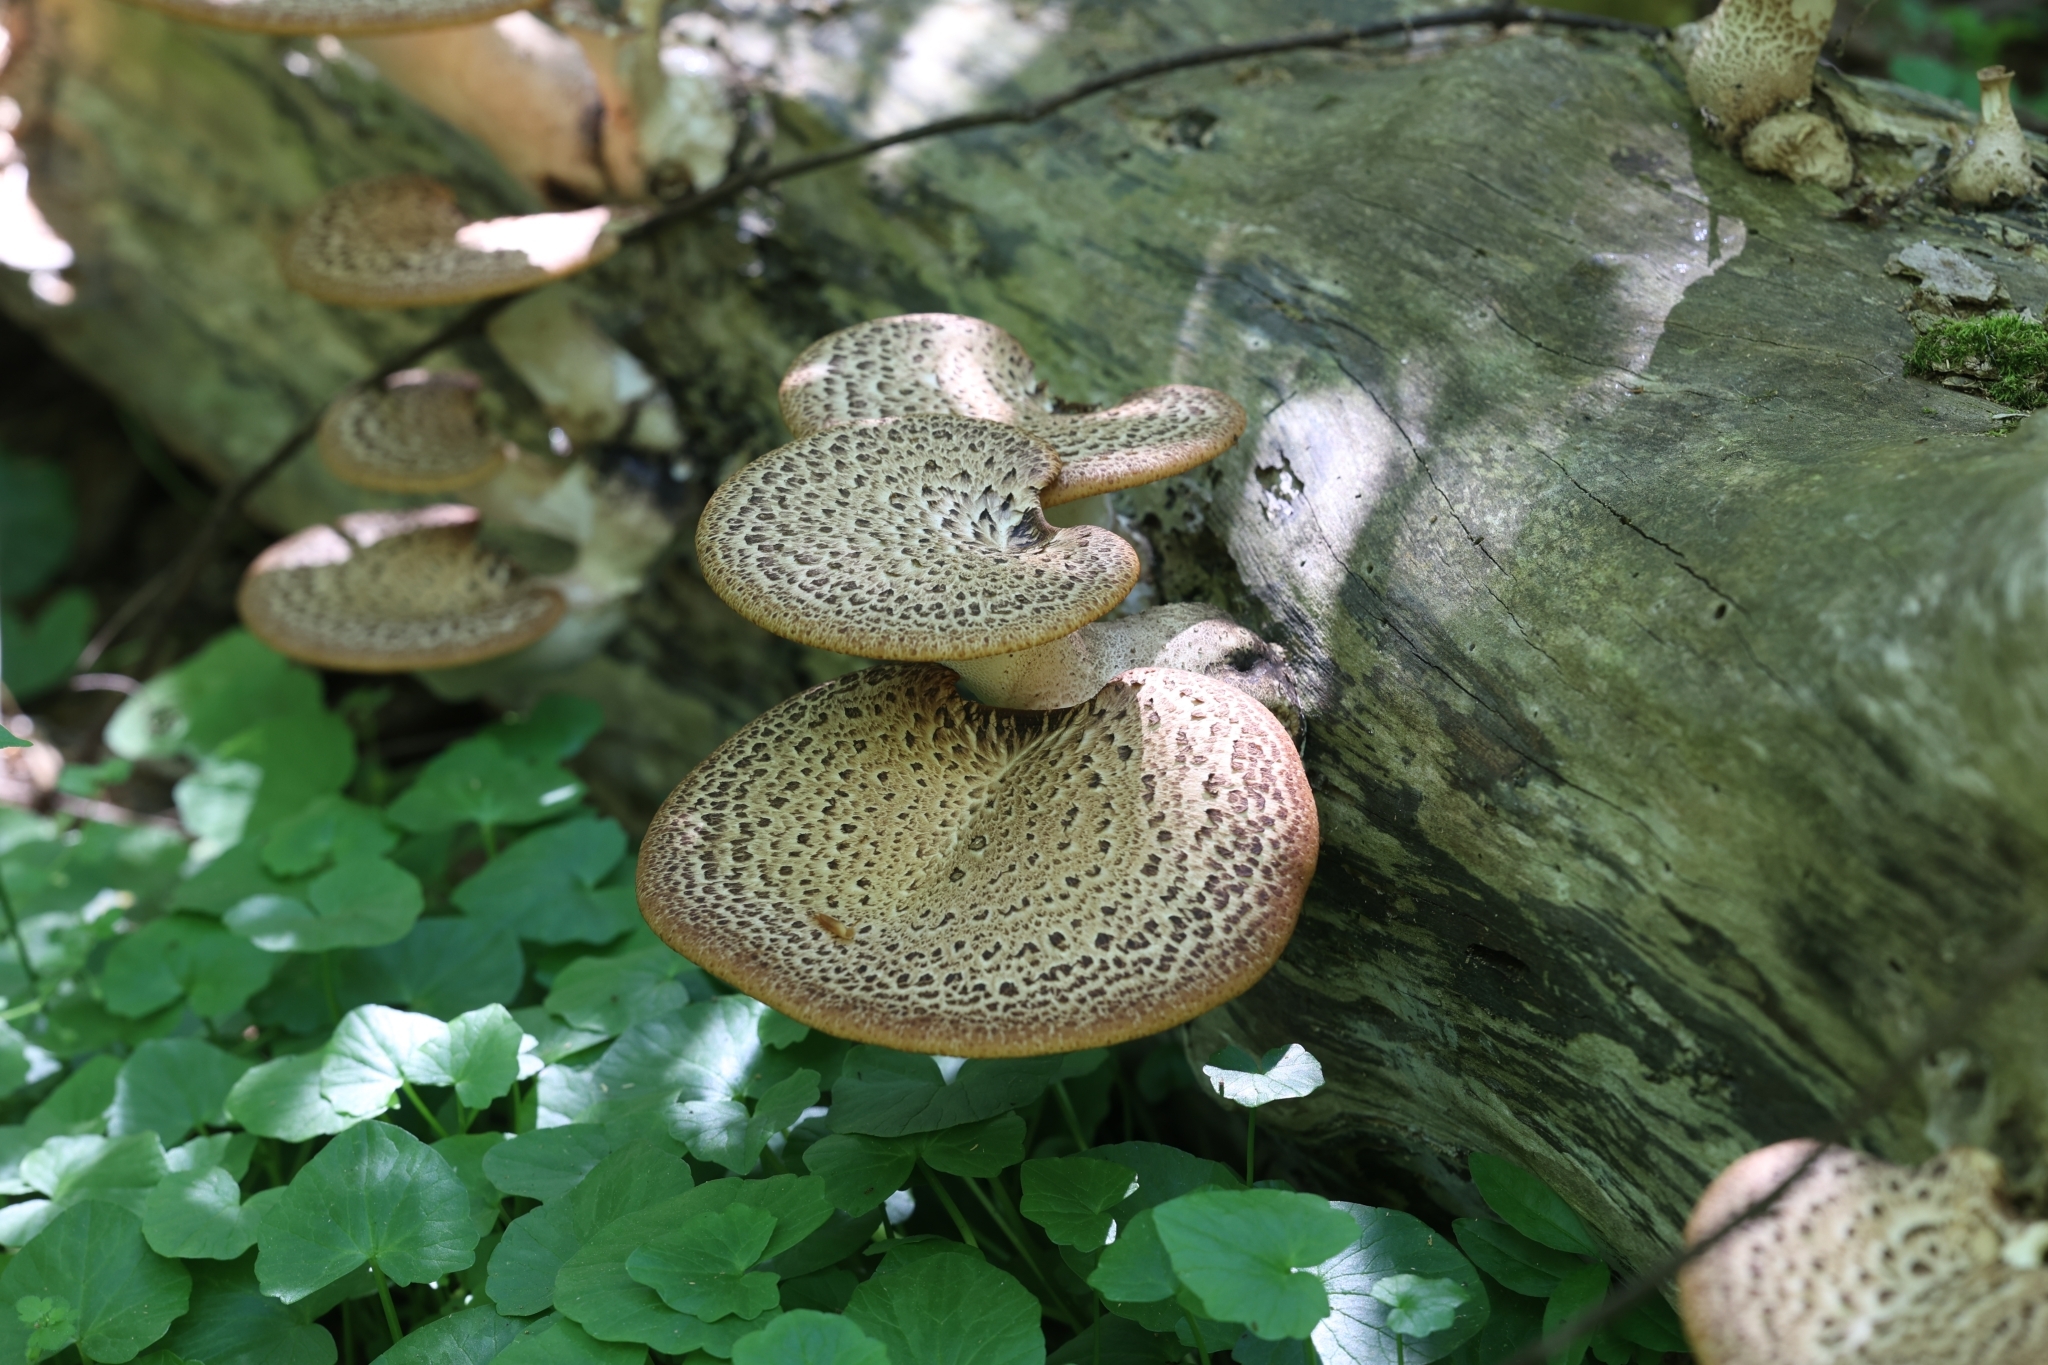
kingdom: Fungi
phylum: Basidiomycota
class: Agaricomycetes
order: Polyporales
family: Polyporaceae
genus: Cerioporus
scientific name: Cerioporus squamosus
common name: Dryad's saddle
